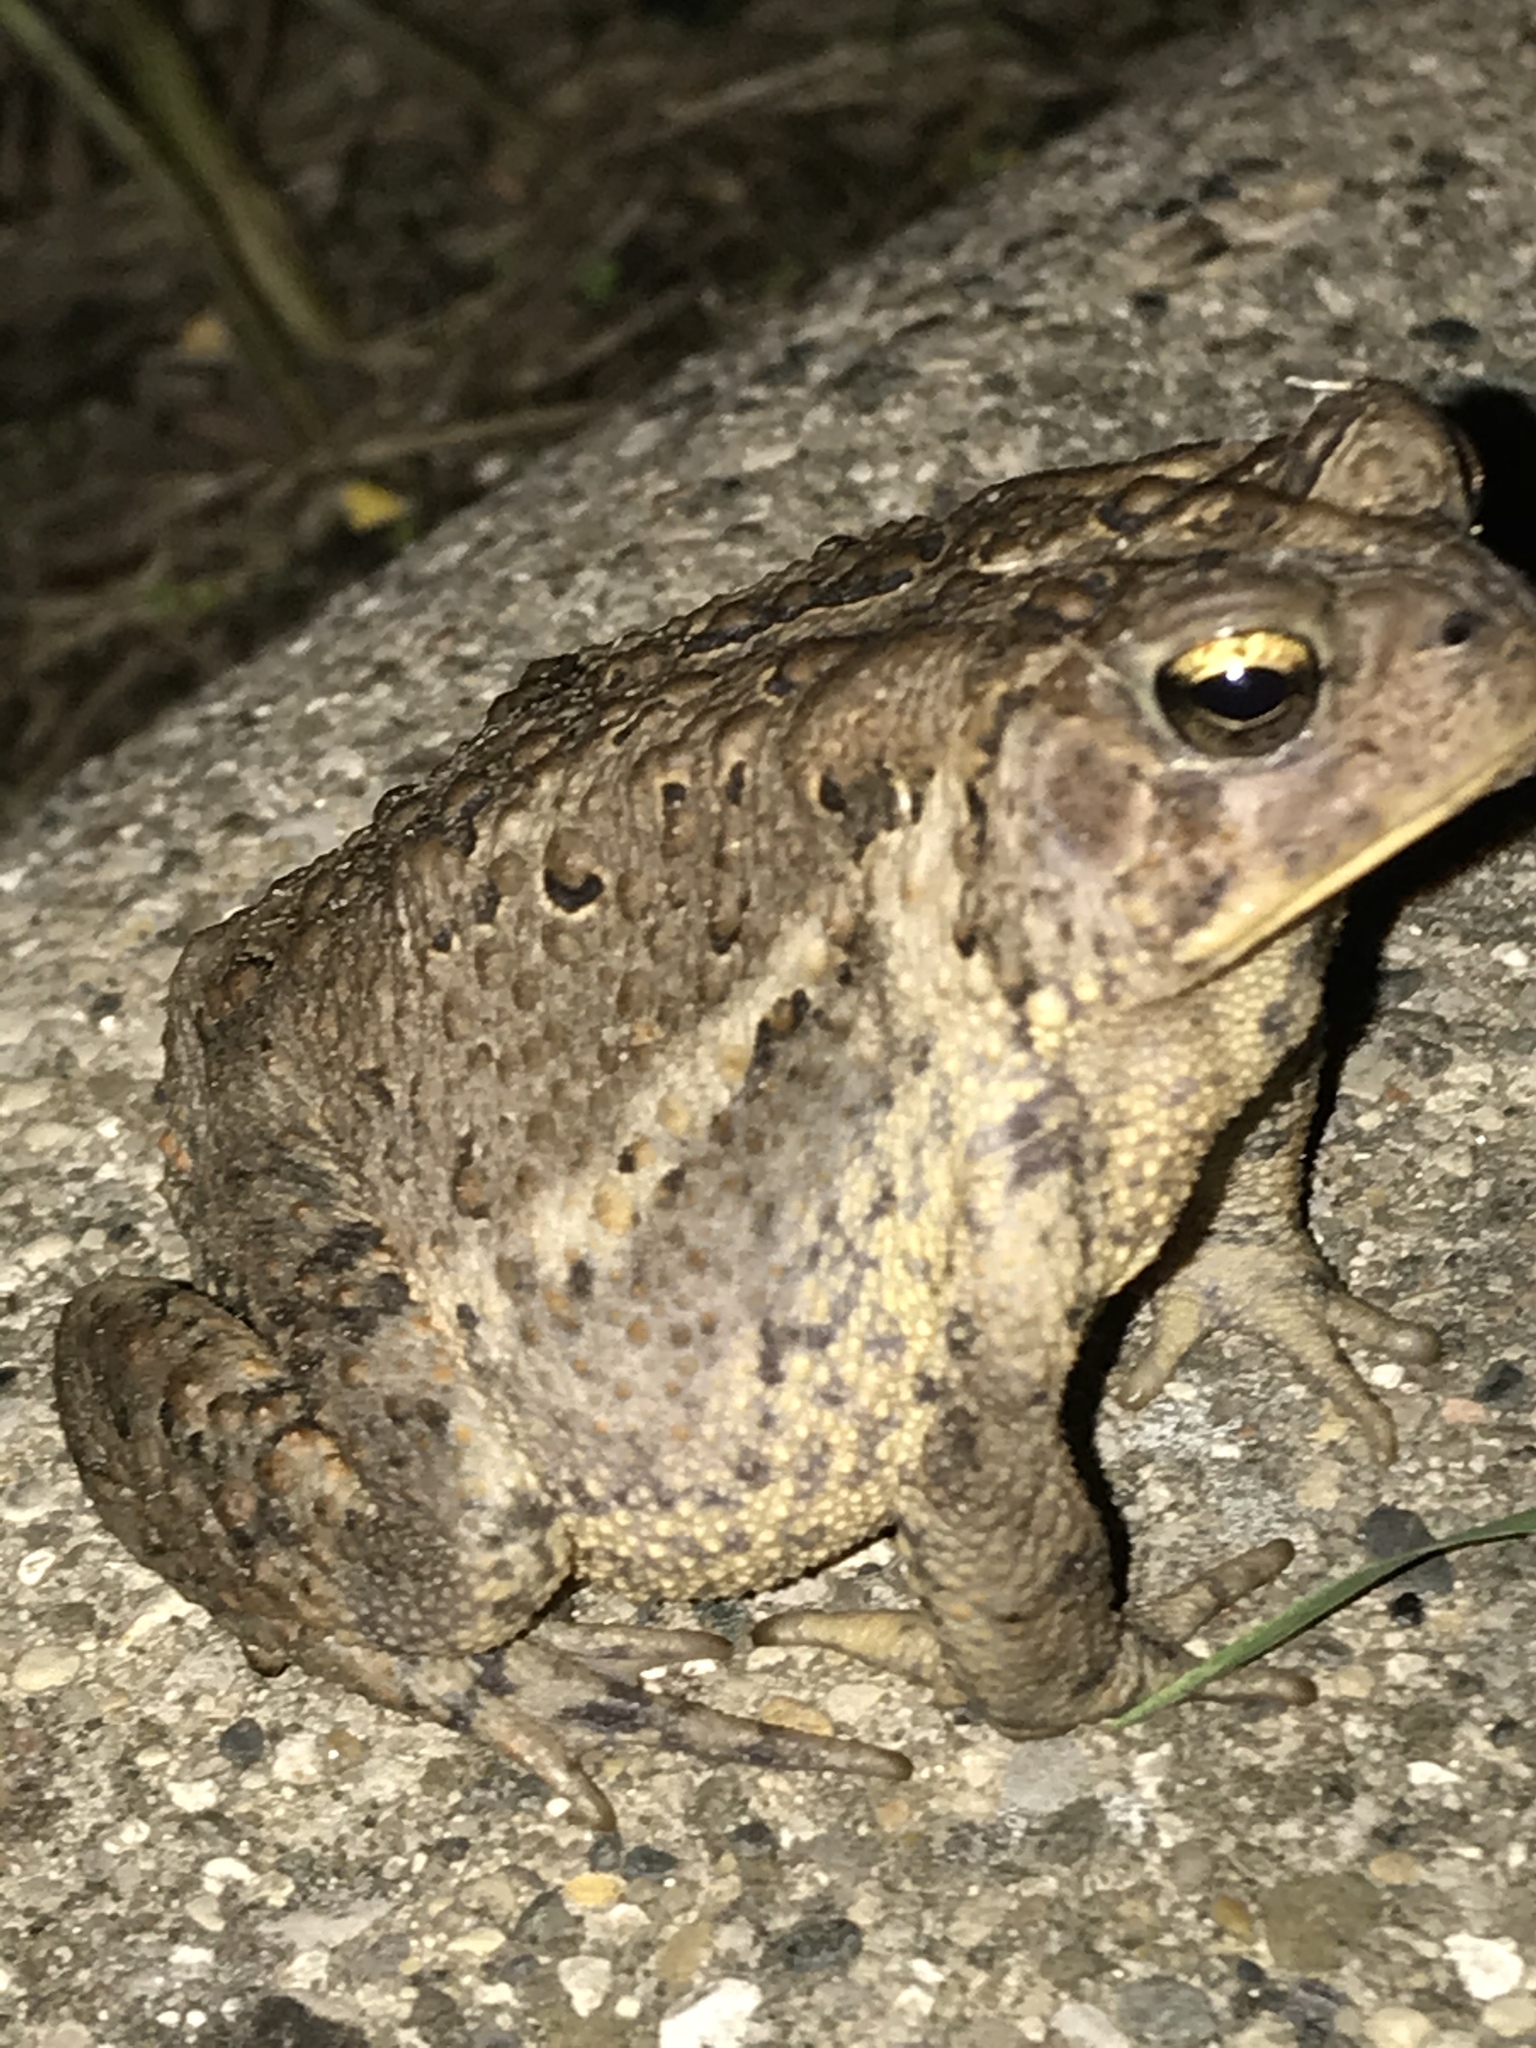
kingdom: Animalia
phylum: Chordata
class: Amphibia
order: Anura
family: Bufonidae
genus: Anaxyrus
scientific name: Anaxyrus americanus
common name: American toad
